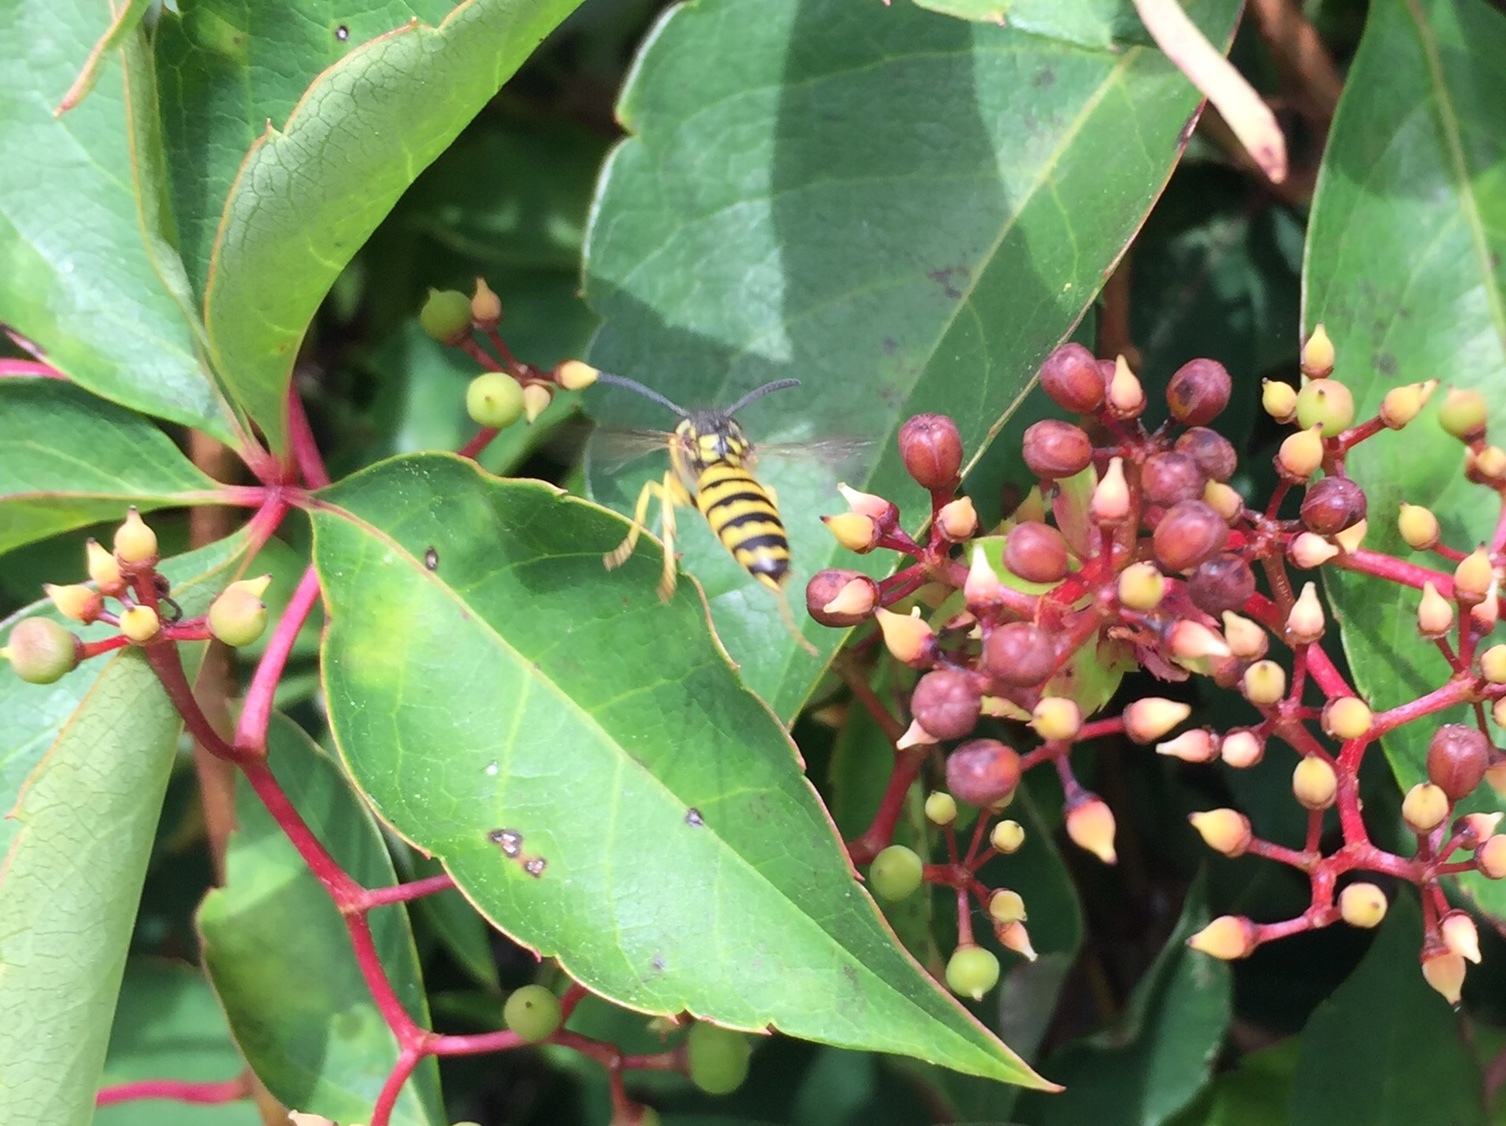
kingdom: Animalia
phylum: Arthropoda
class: Insecta
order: Hymenoptera
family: Vespidae
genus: Vespula
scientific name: Vespula maculifrons
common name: Eastern yellowjacket
